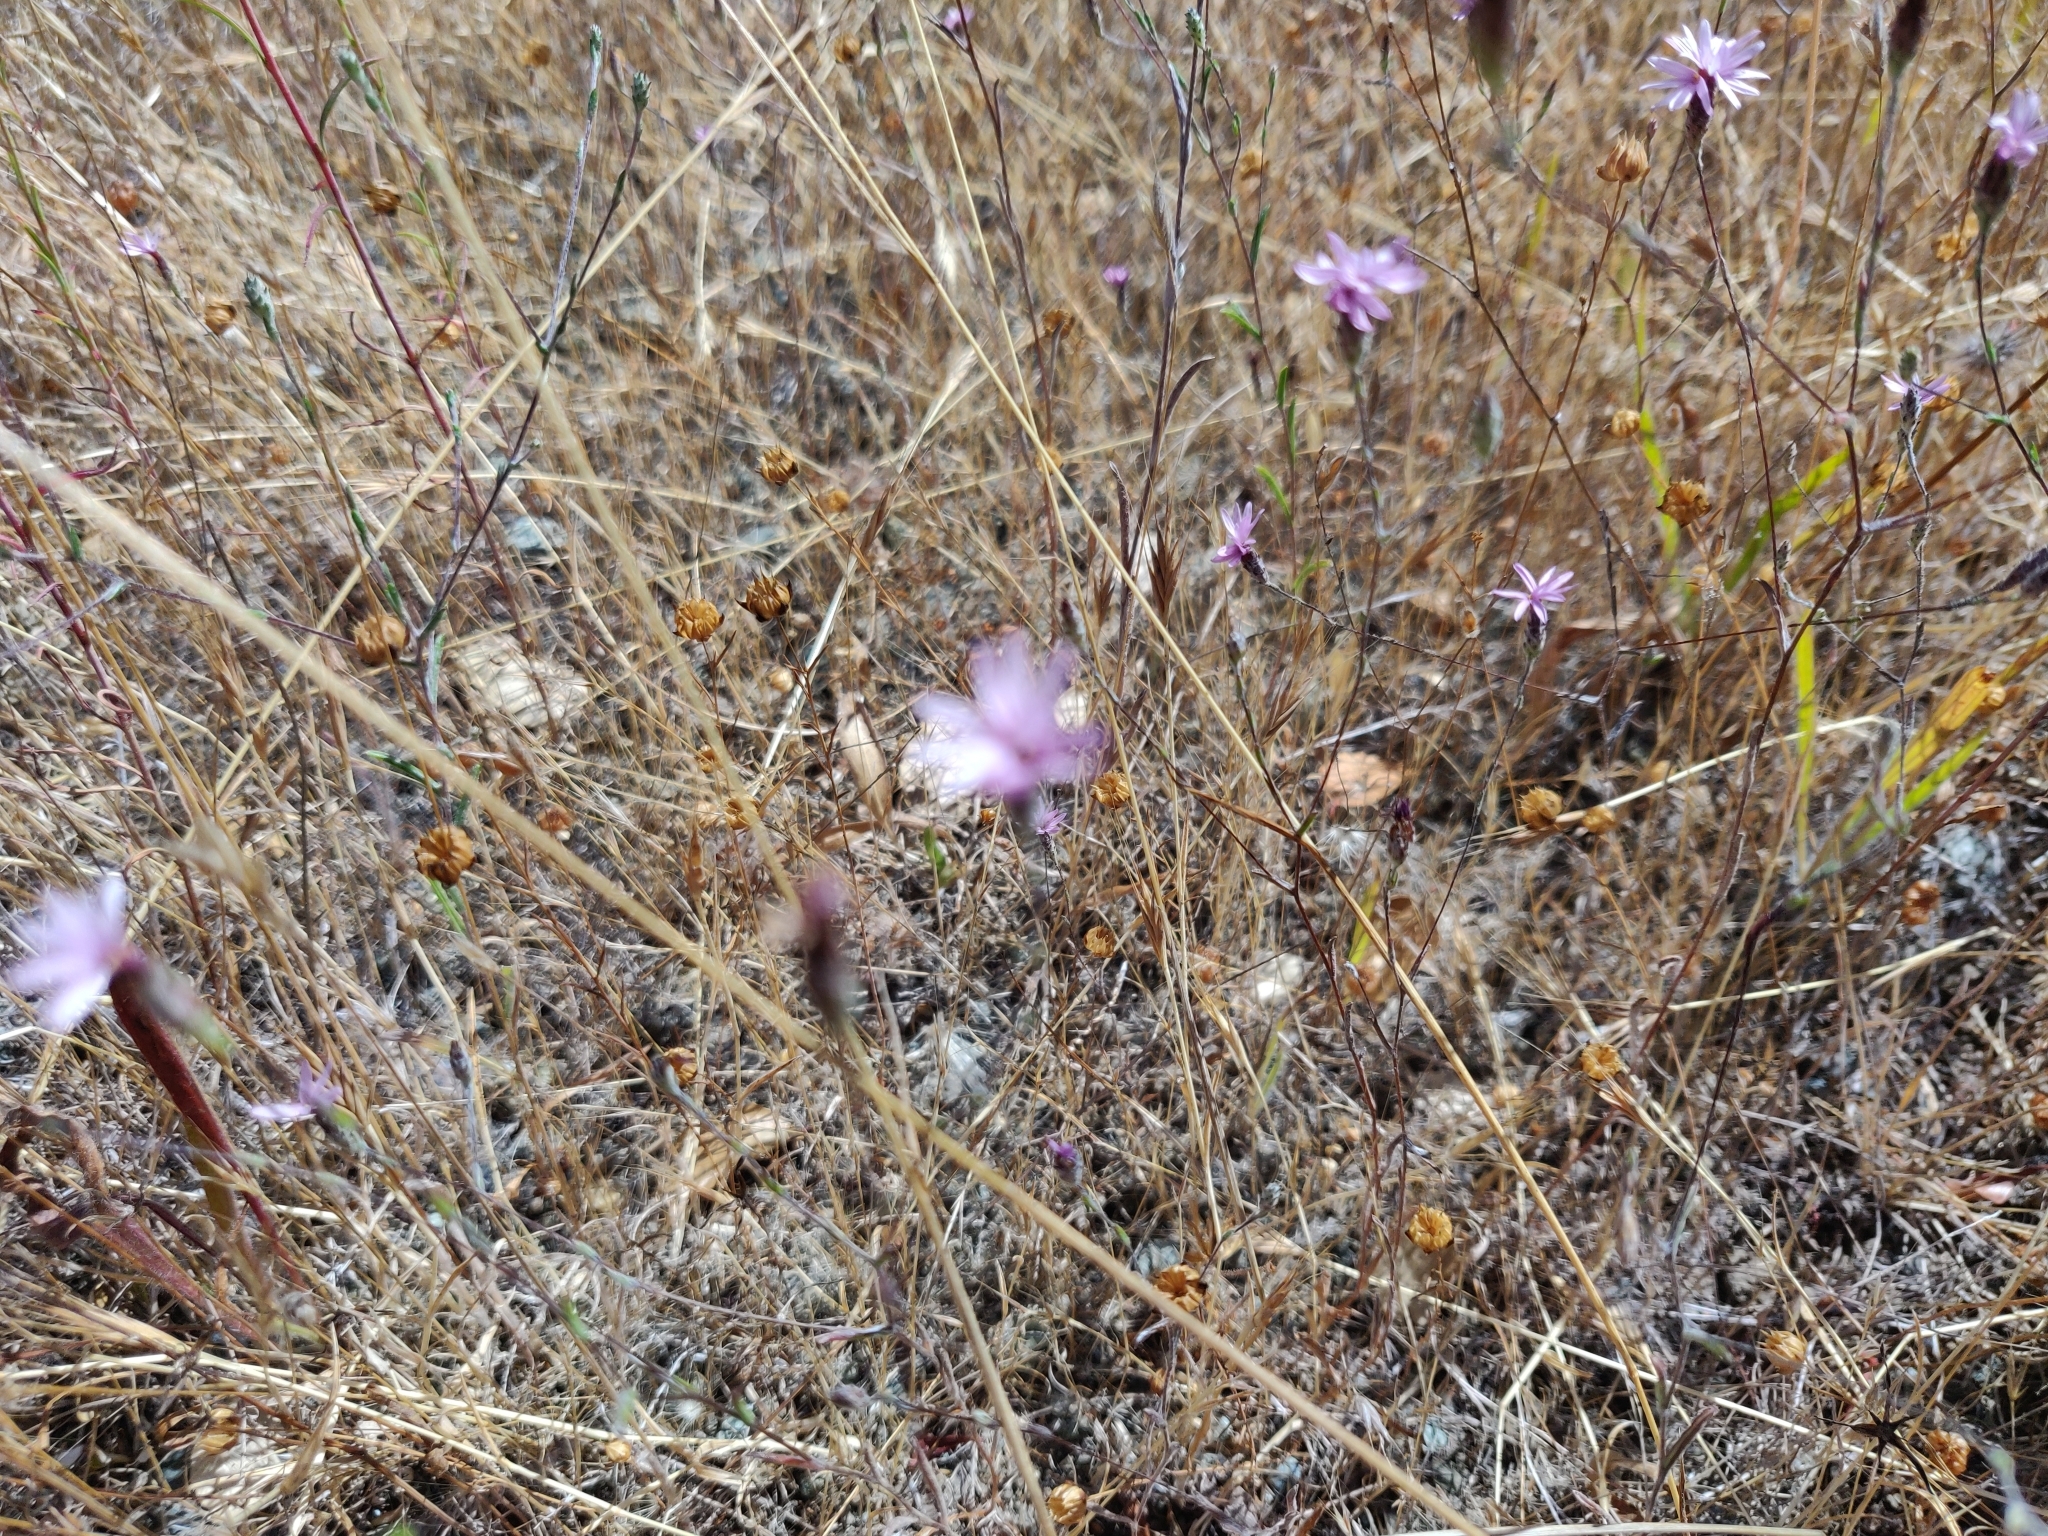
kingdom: Plantae
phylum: Tracheophyta
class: Magnoliopsida
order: Asterales
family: Asteraceae
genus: Lessingia
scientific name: Lessingia arachnoidea
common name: Crystal springs lessingia
